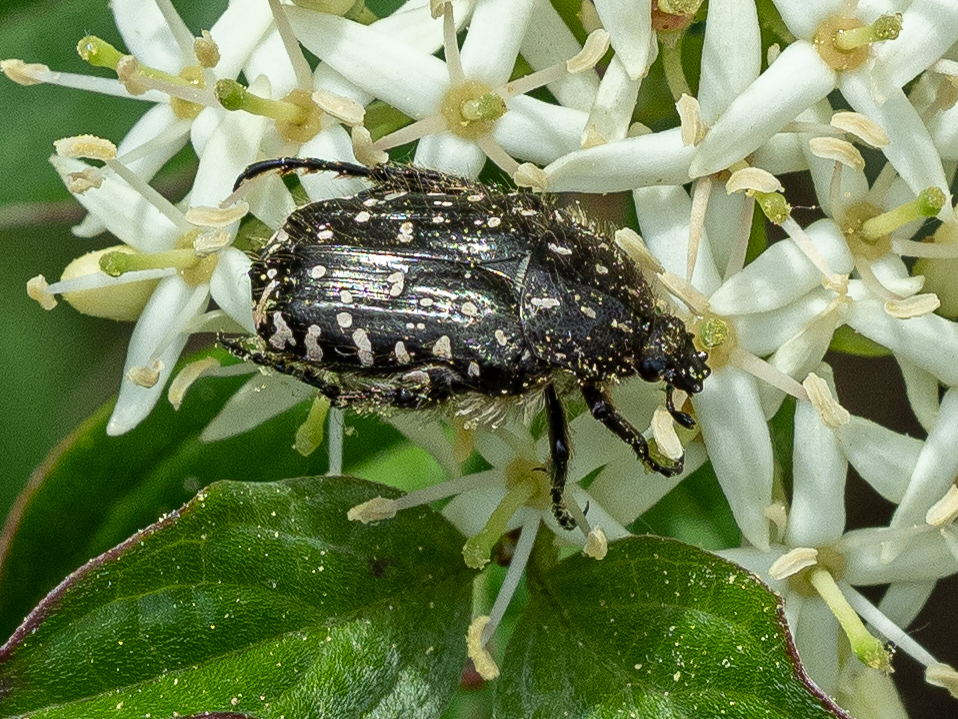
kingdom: Animalia
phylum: Arthropoda
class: Insecta
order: Coleoptera
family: Scarabaeidae
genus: Oxythyrea
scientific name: Oxythyrea funesta
